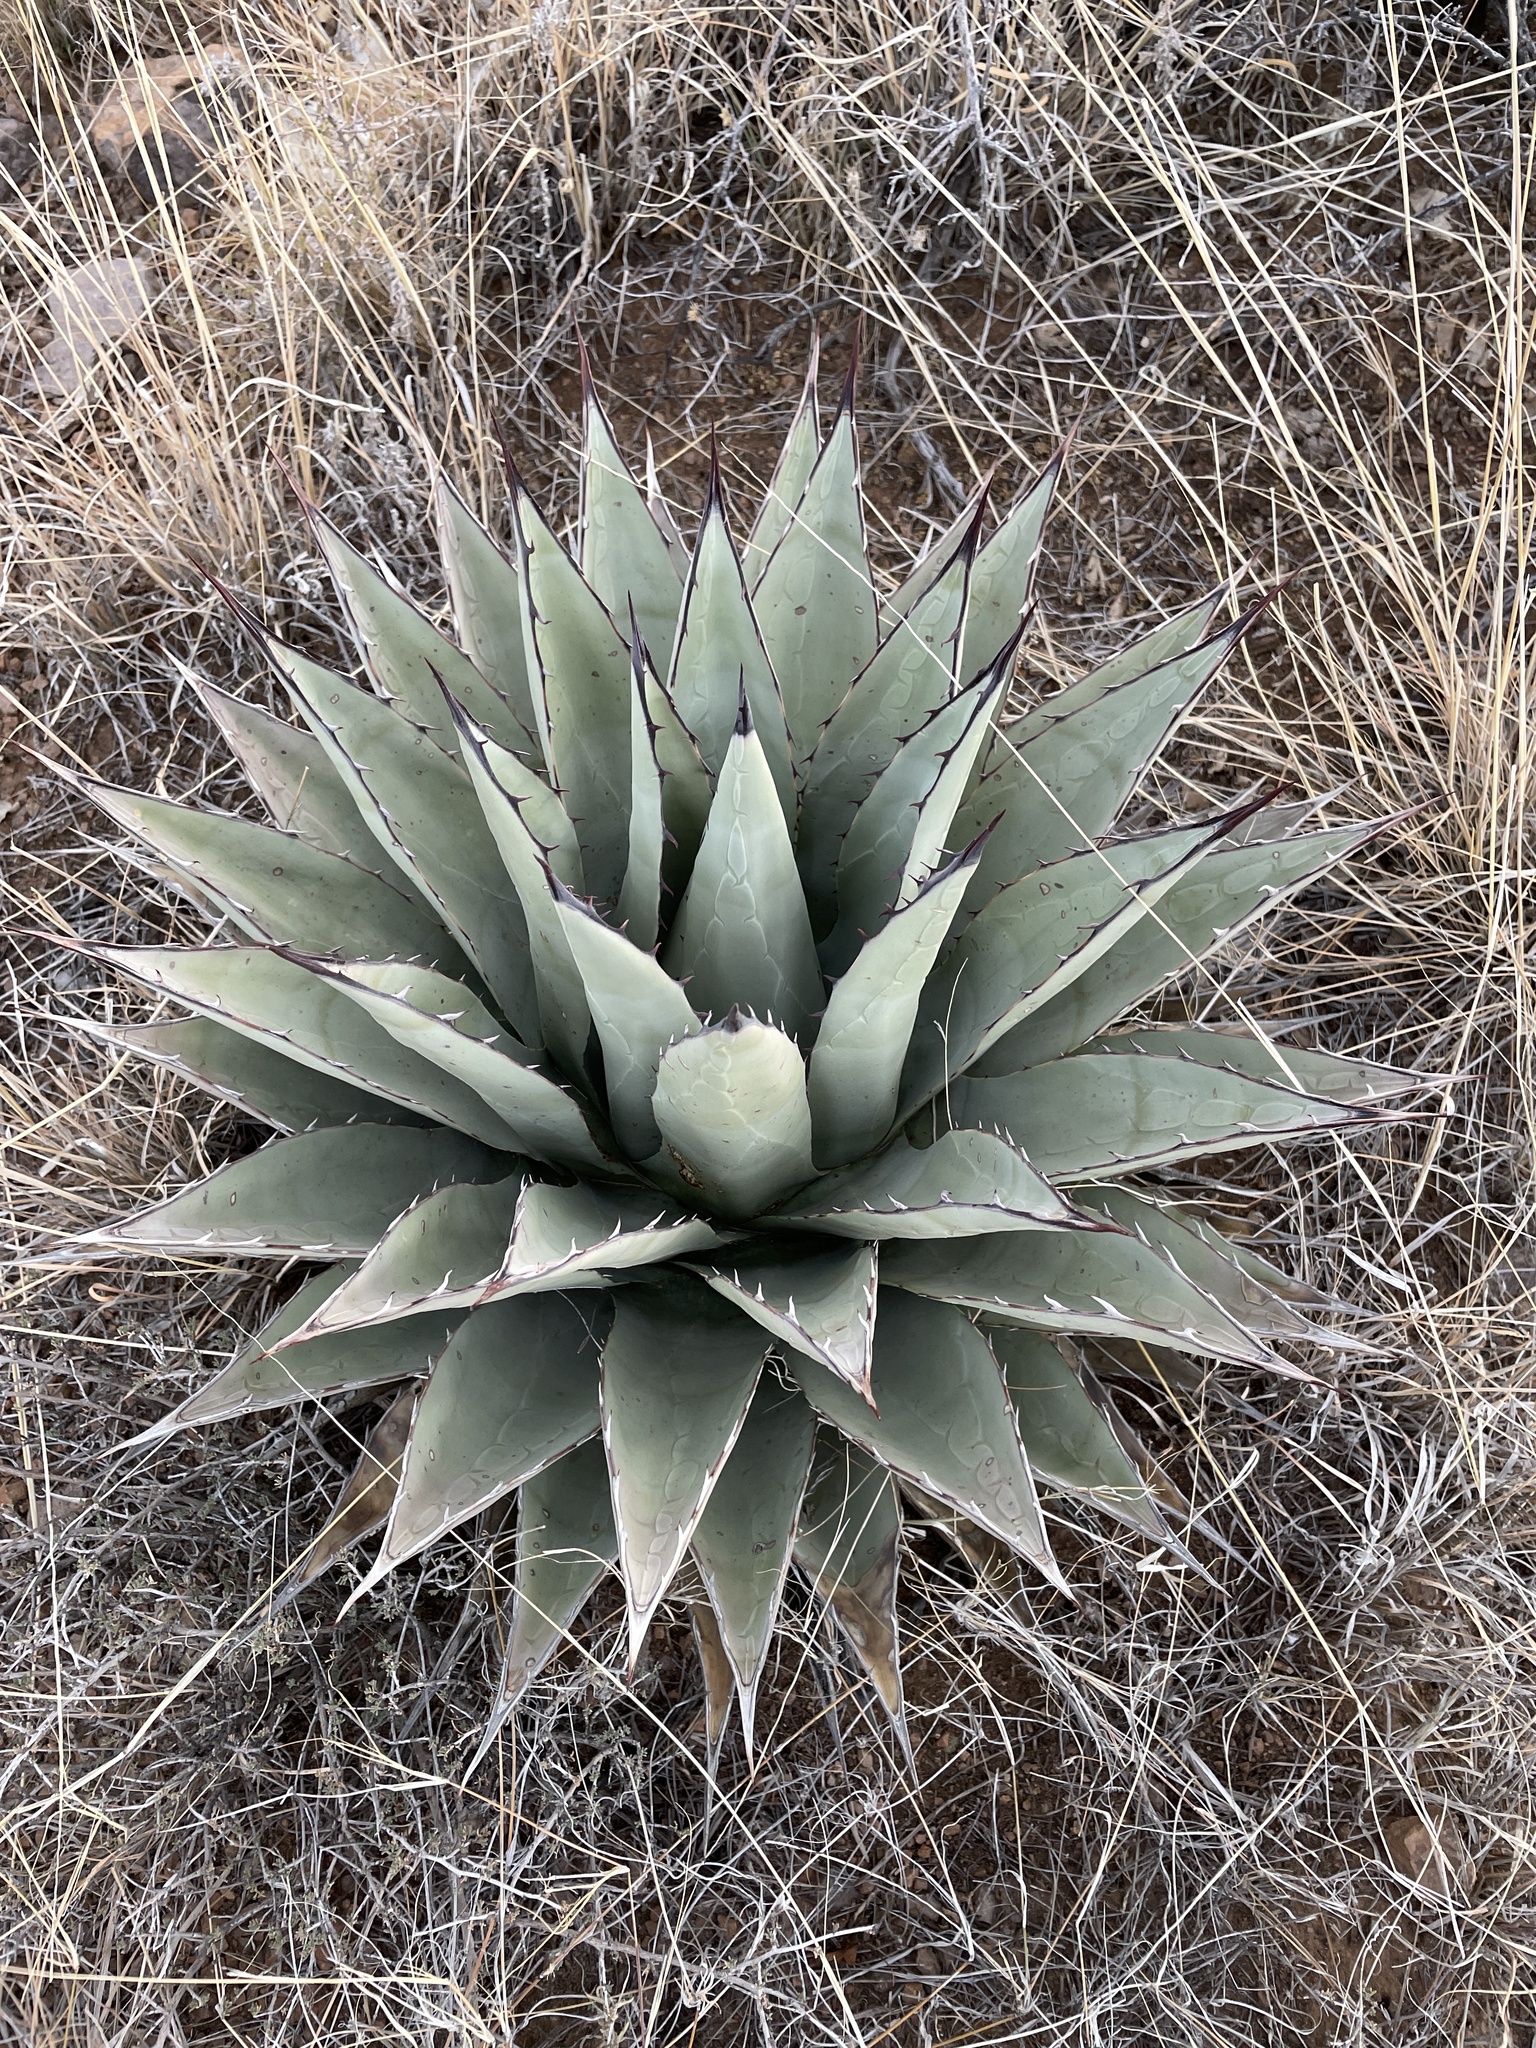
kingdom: Plantae
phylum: Tracheophyta
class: Liliopsida
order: Asparagales
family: Asparagaceae
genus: Agave
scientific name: Agave parryi
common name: Parry's agave
